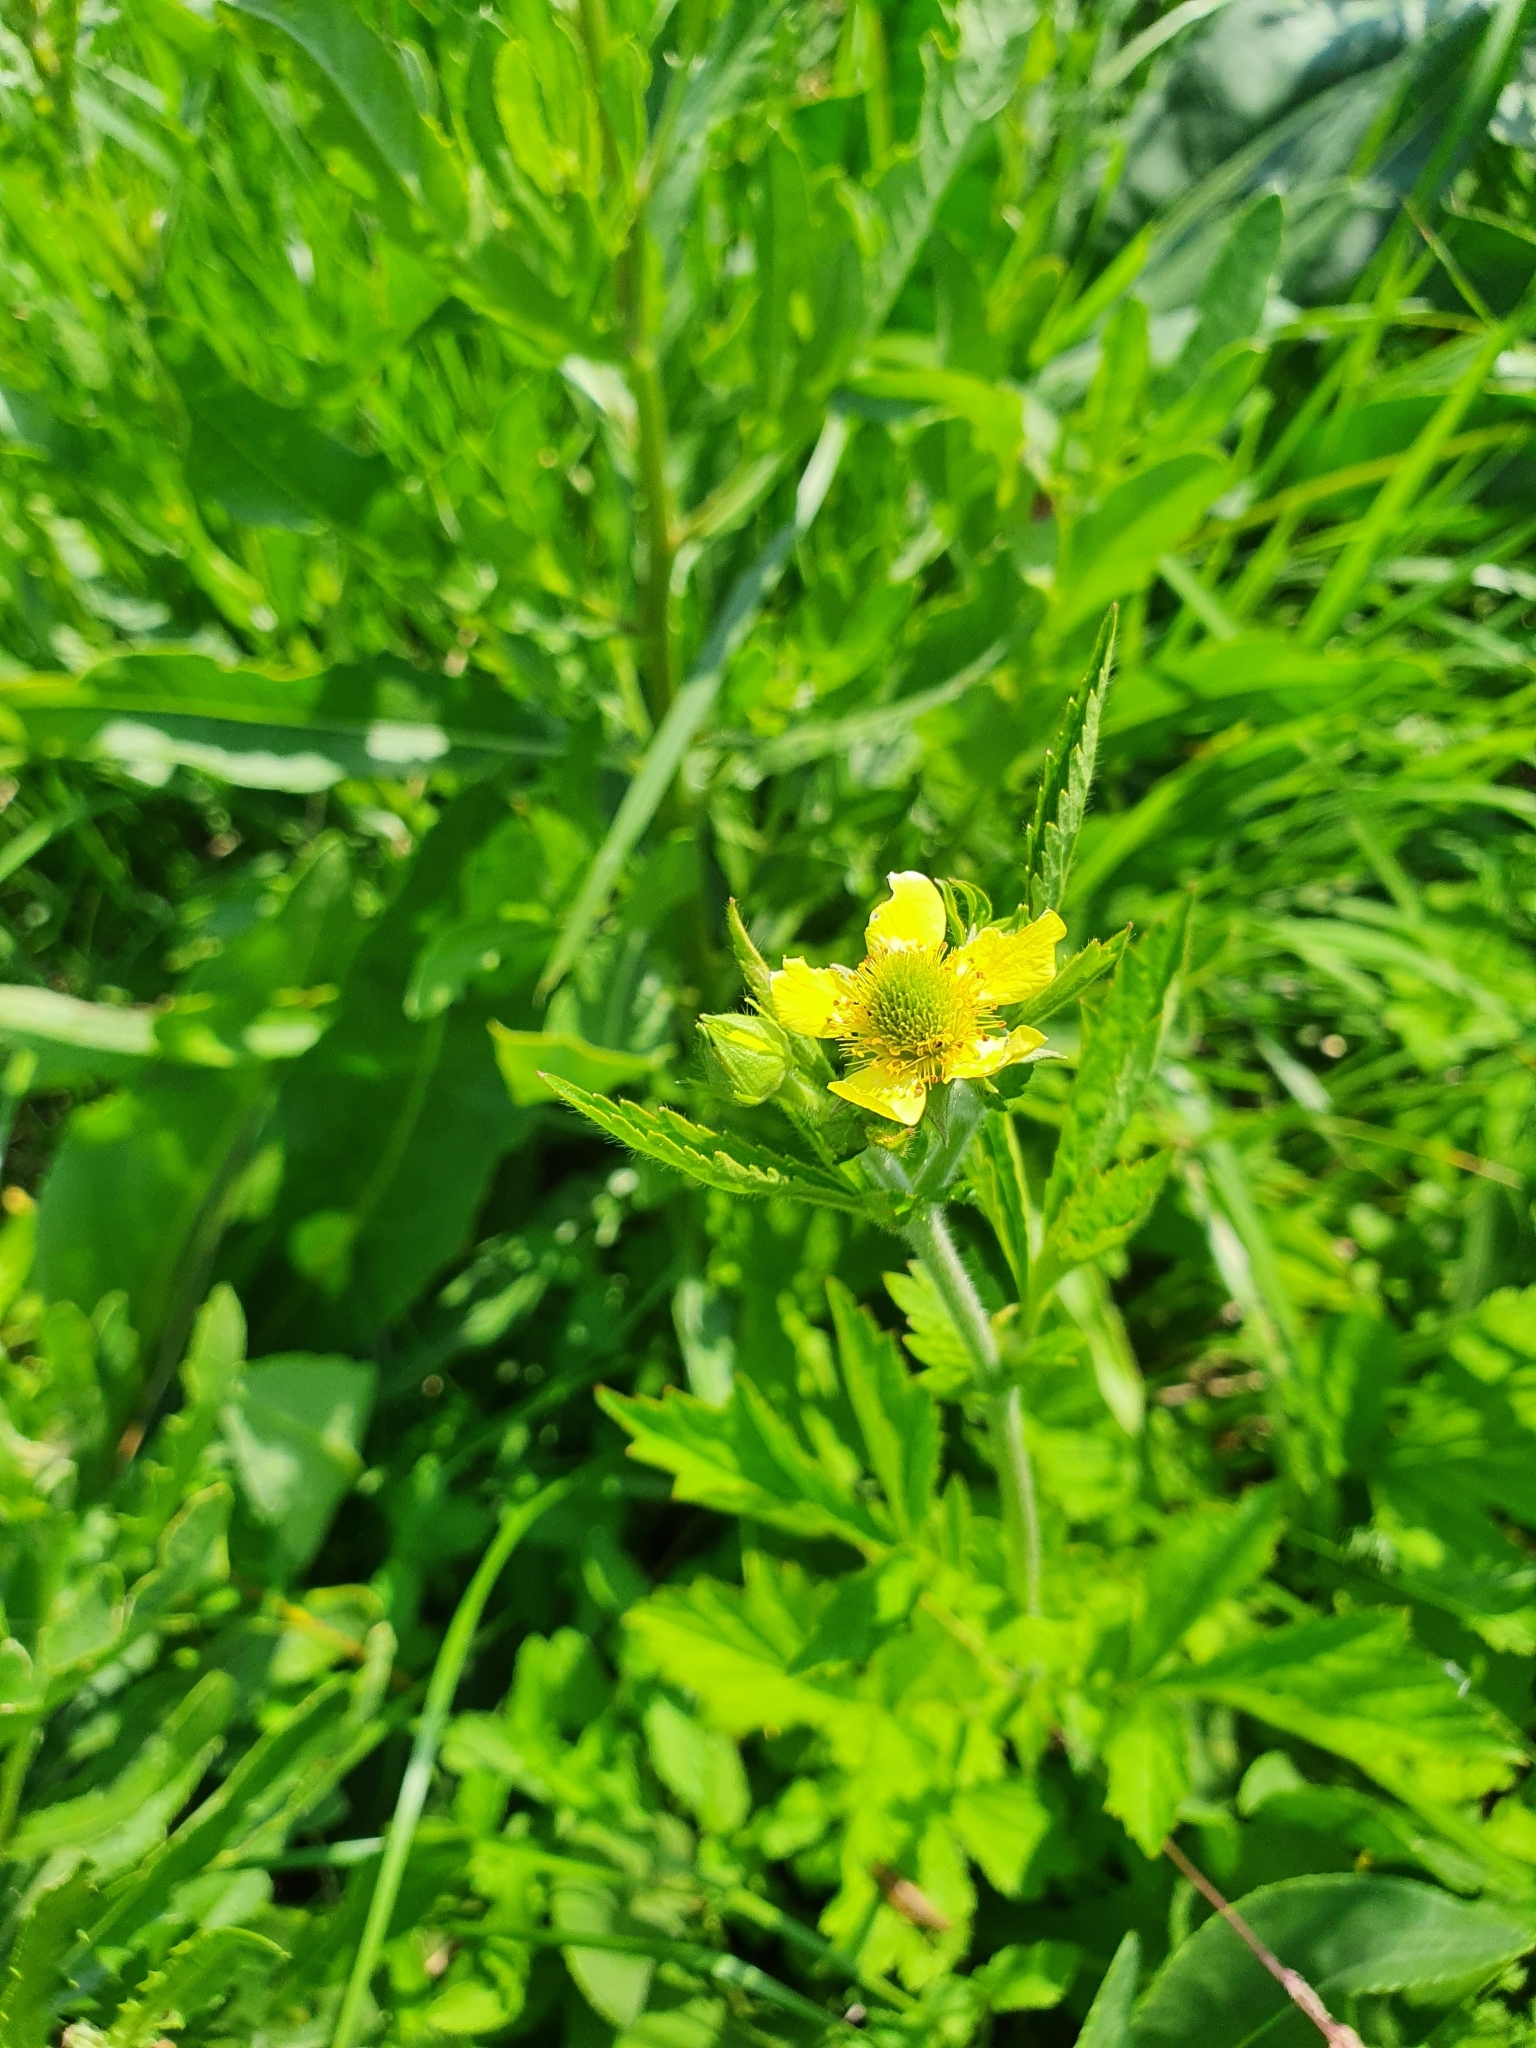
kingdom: Plantae
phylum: Tracheophyta
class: Magnoliopsida
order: Rosales
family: Rosaceae
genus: Geum
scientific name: Geum aleppicum
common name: Yellow avens
